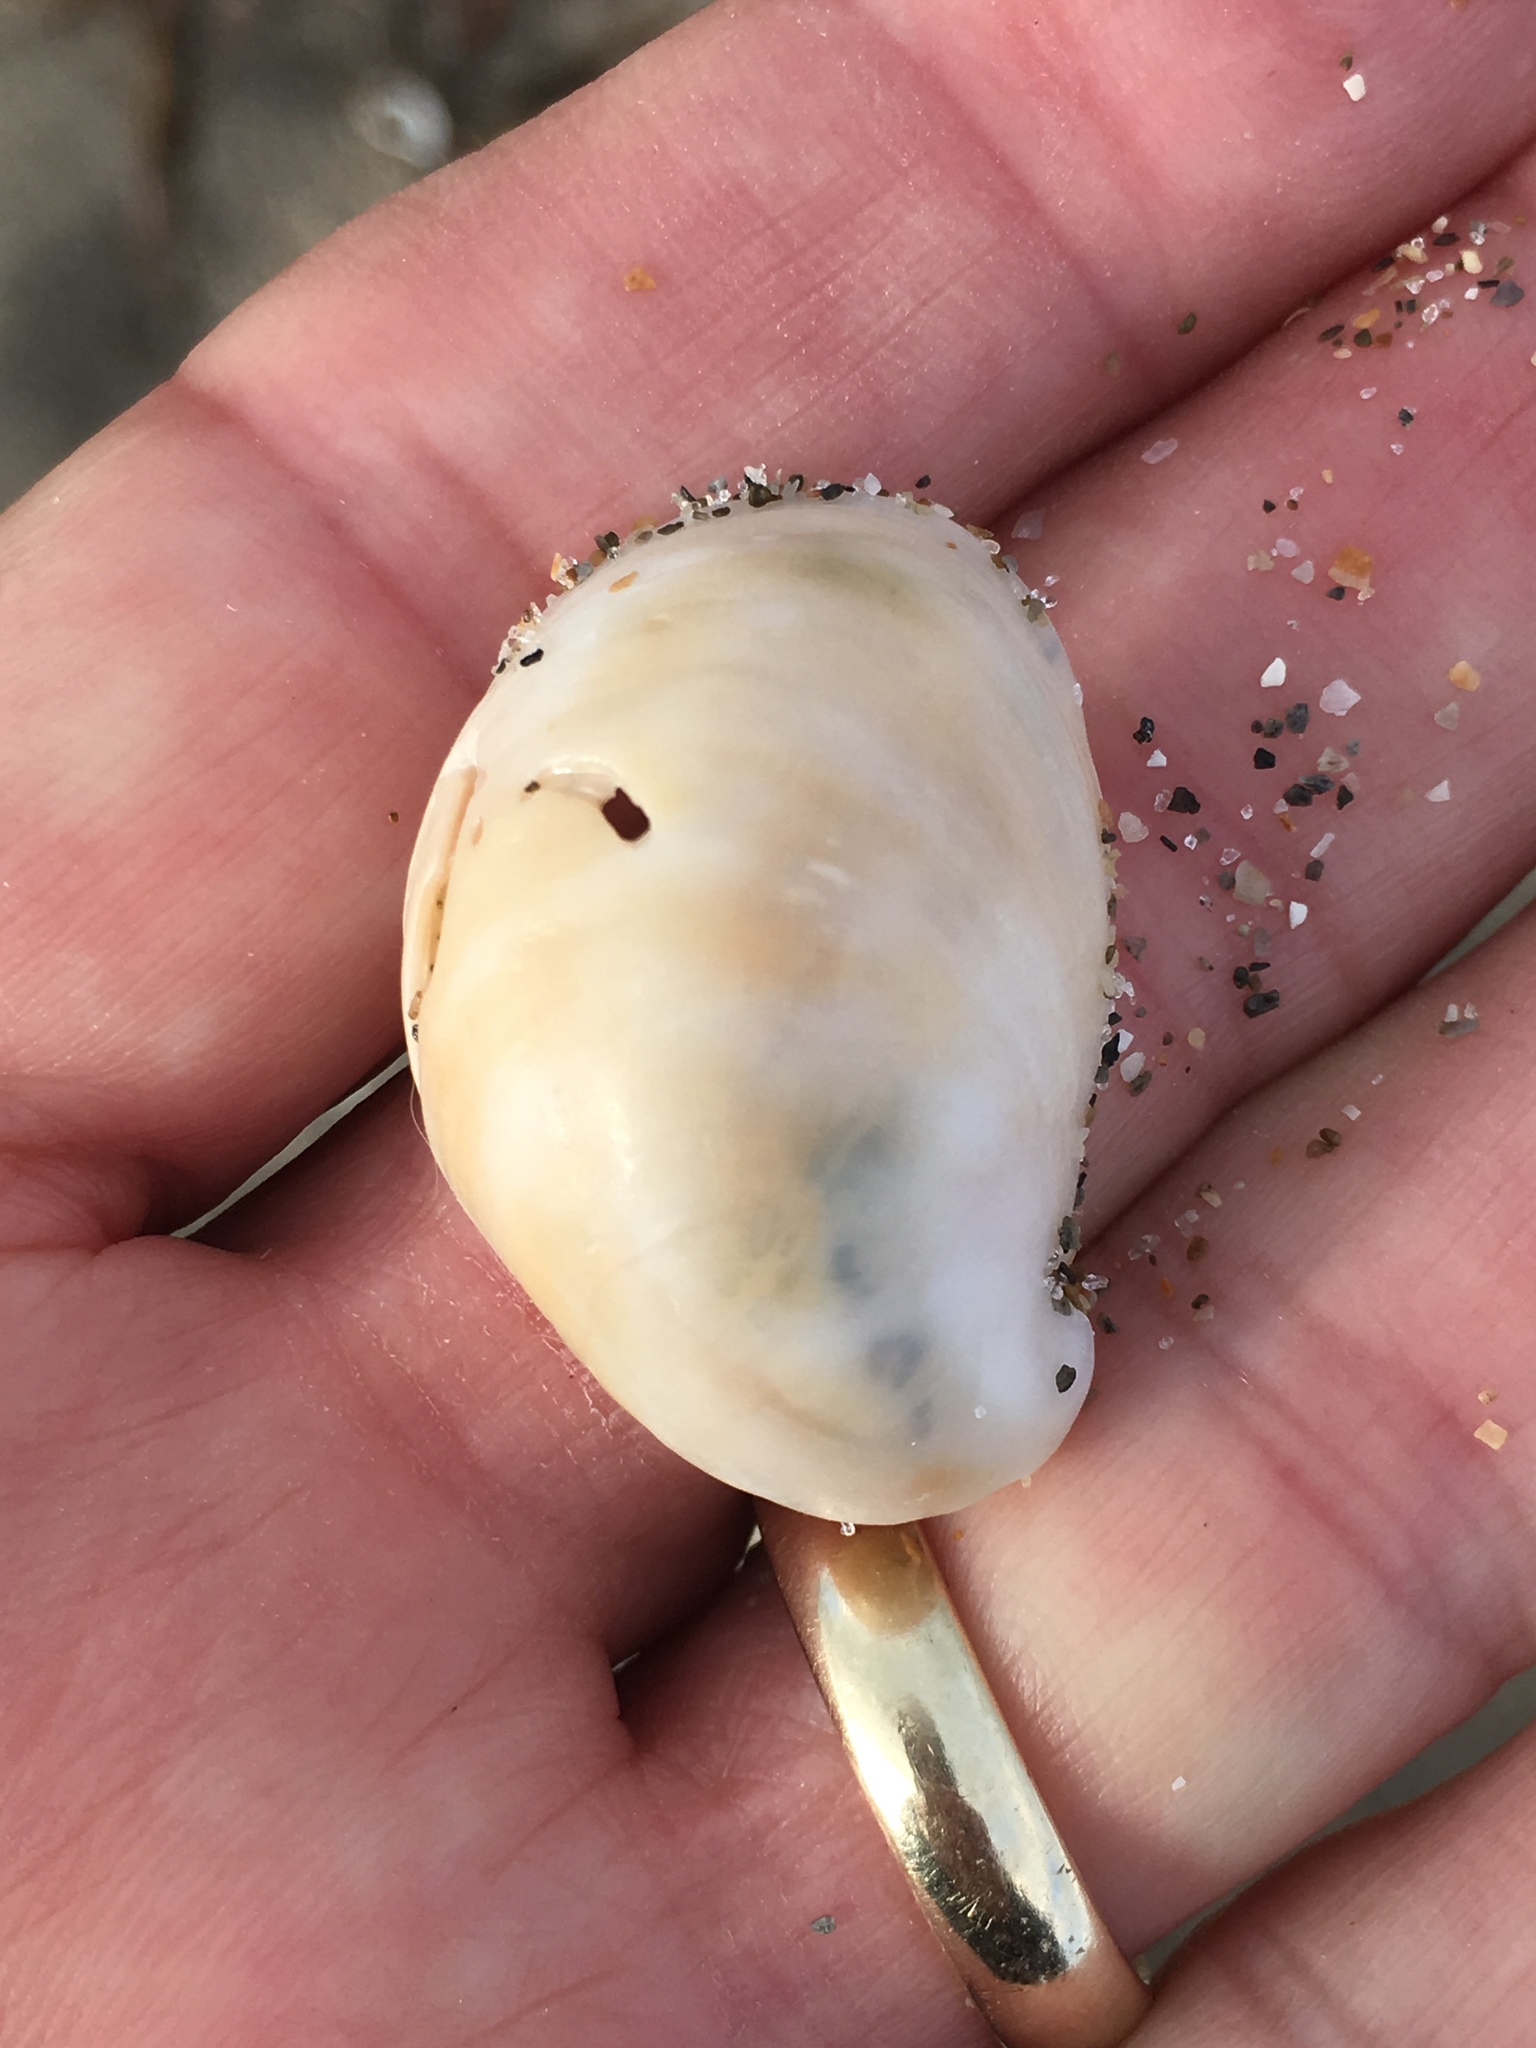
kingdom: Animalia
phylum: Mollusca
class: Gastropoda
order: Littorinimorpha
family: Calyptraeidae
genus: Crepidula
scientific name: Crepidula fornicata
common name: Slipper limpet
